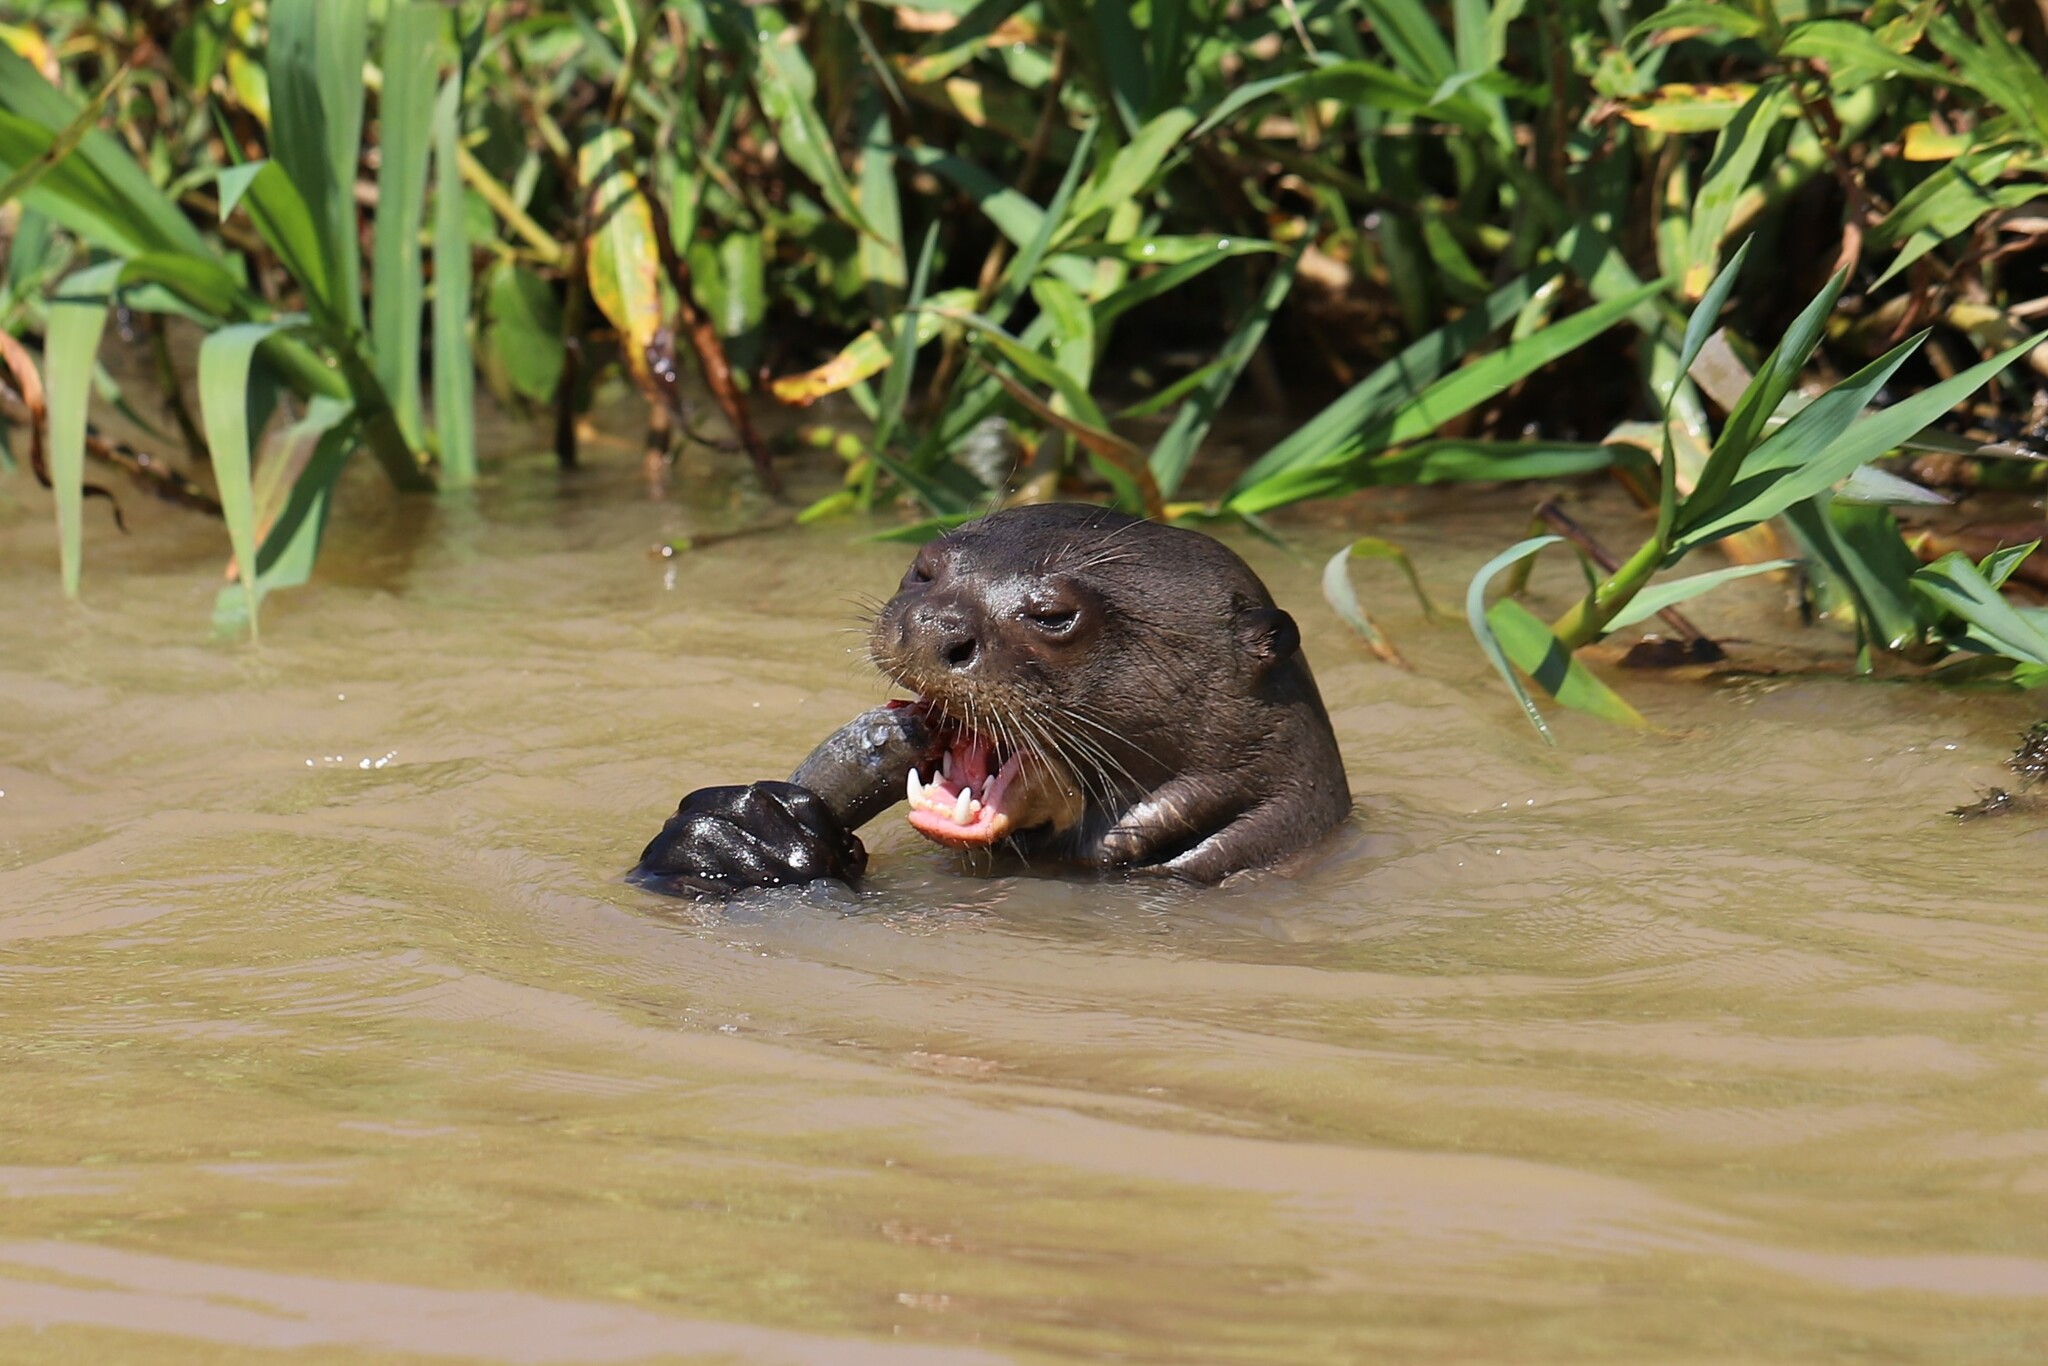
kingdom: Animalia
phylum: Chordata
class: Mammalia
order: Carnivora
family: Mustelidae
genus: Pteronura
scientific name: Pteronura brasiliensis
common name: Giant otter
